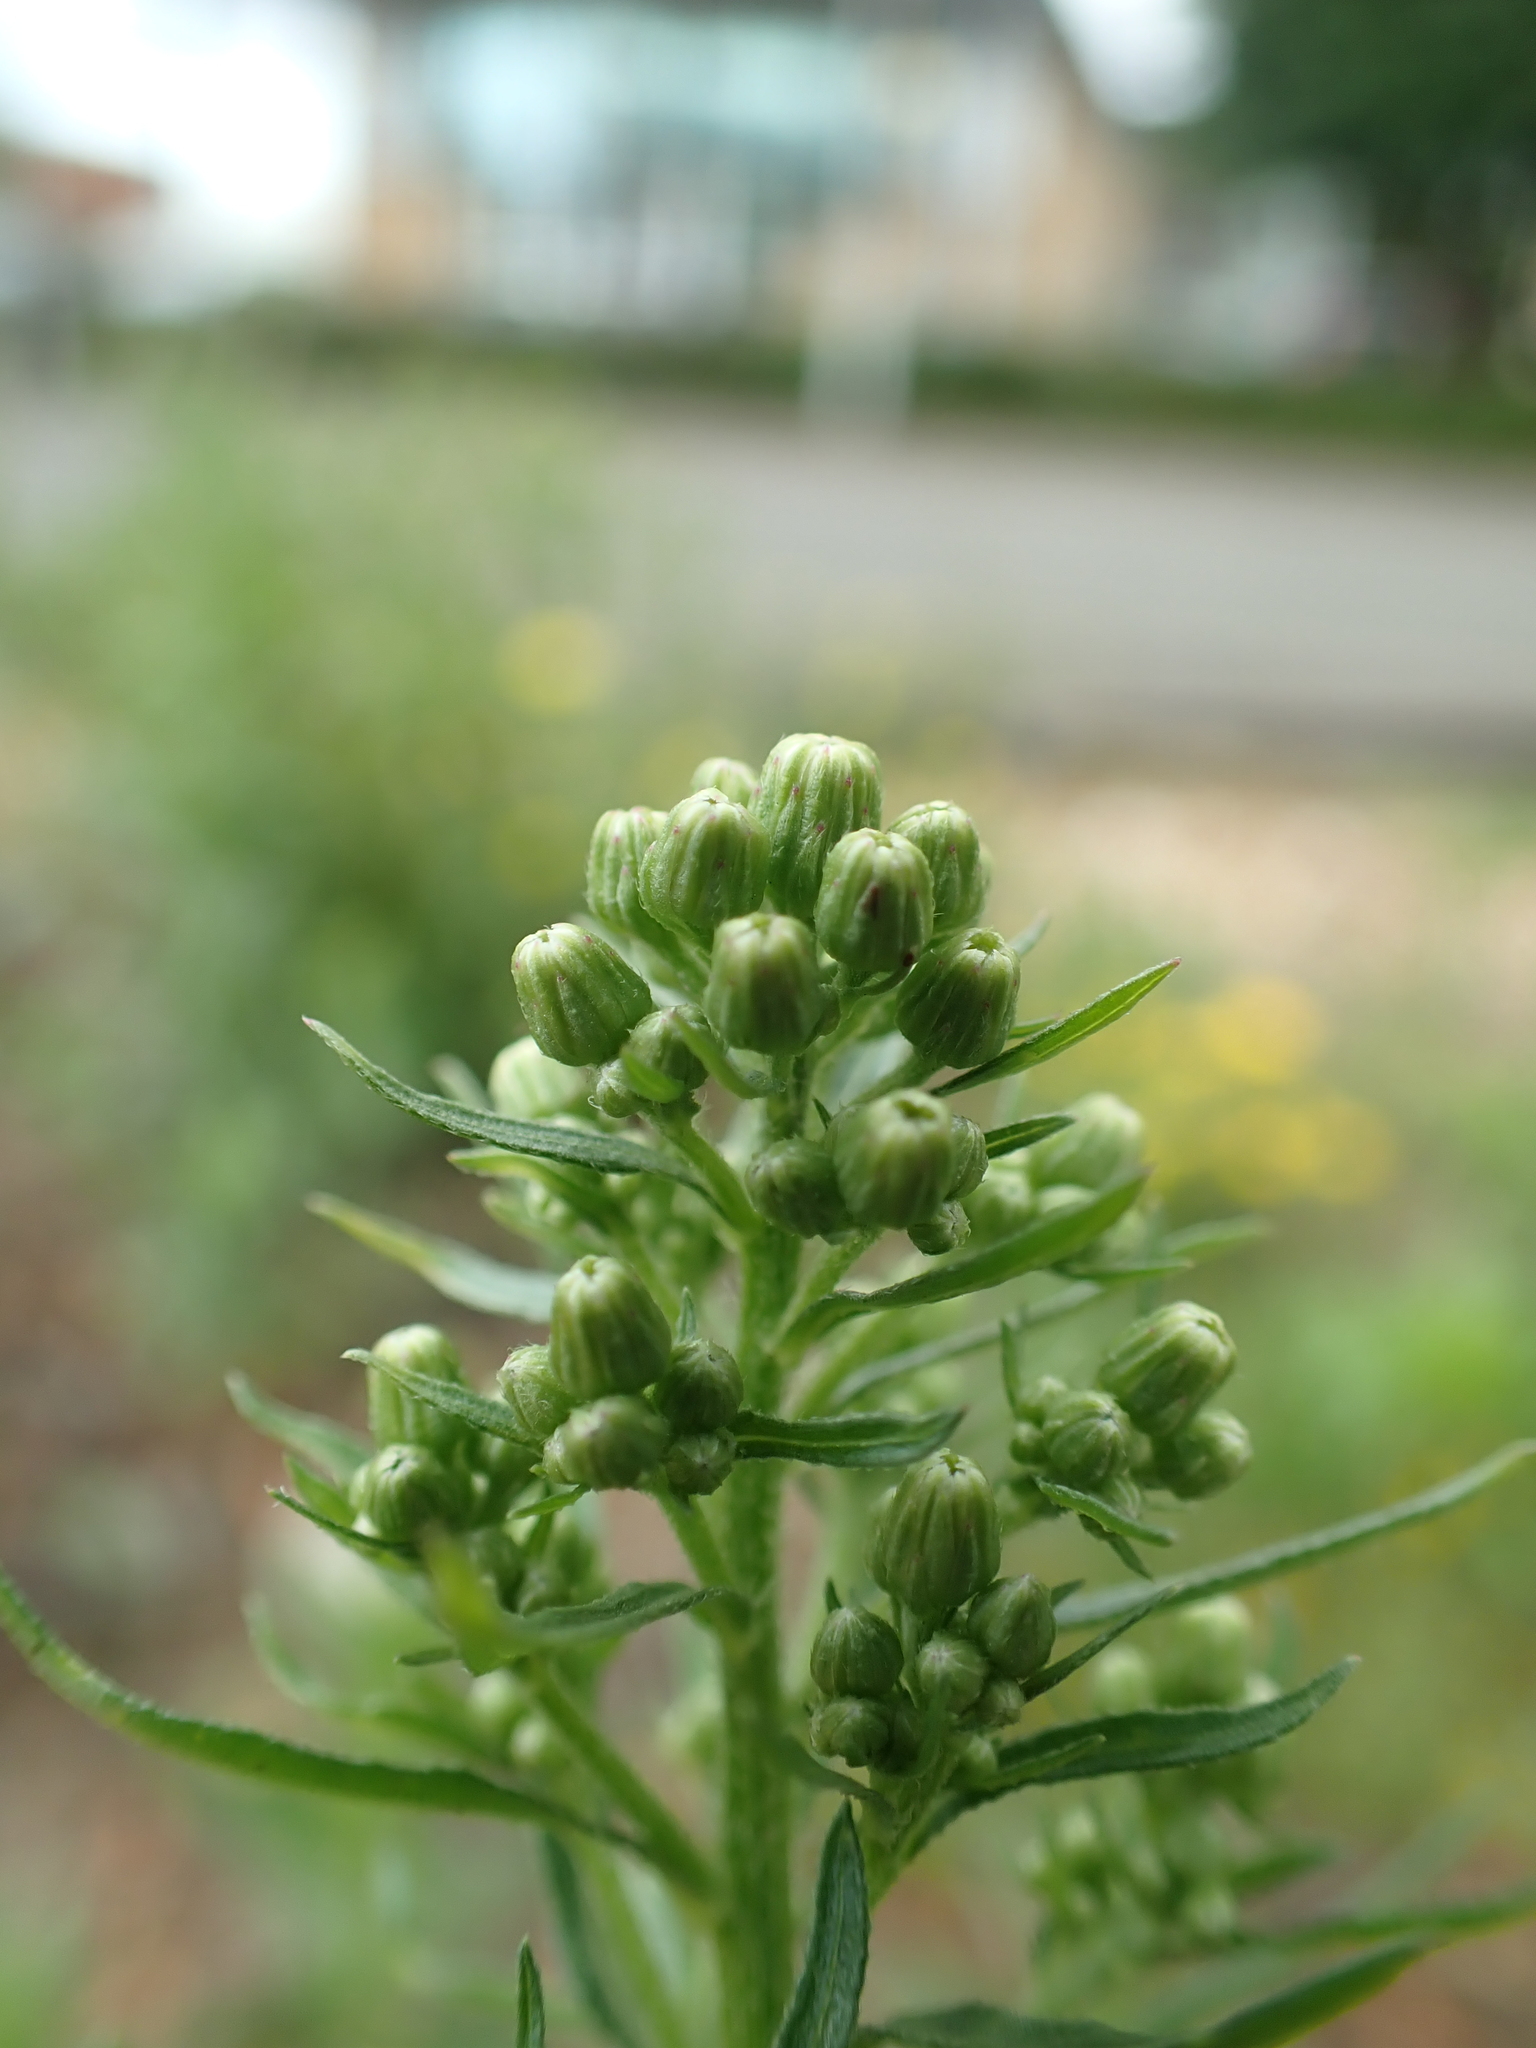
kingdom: Plantae
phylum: Tracheophyta
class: Magnoliopsida
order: Asterales
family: Asteraceae
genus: Erigeron
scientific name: Erigeron floribundus
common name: Bilbao fleabane
